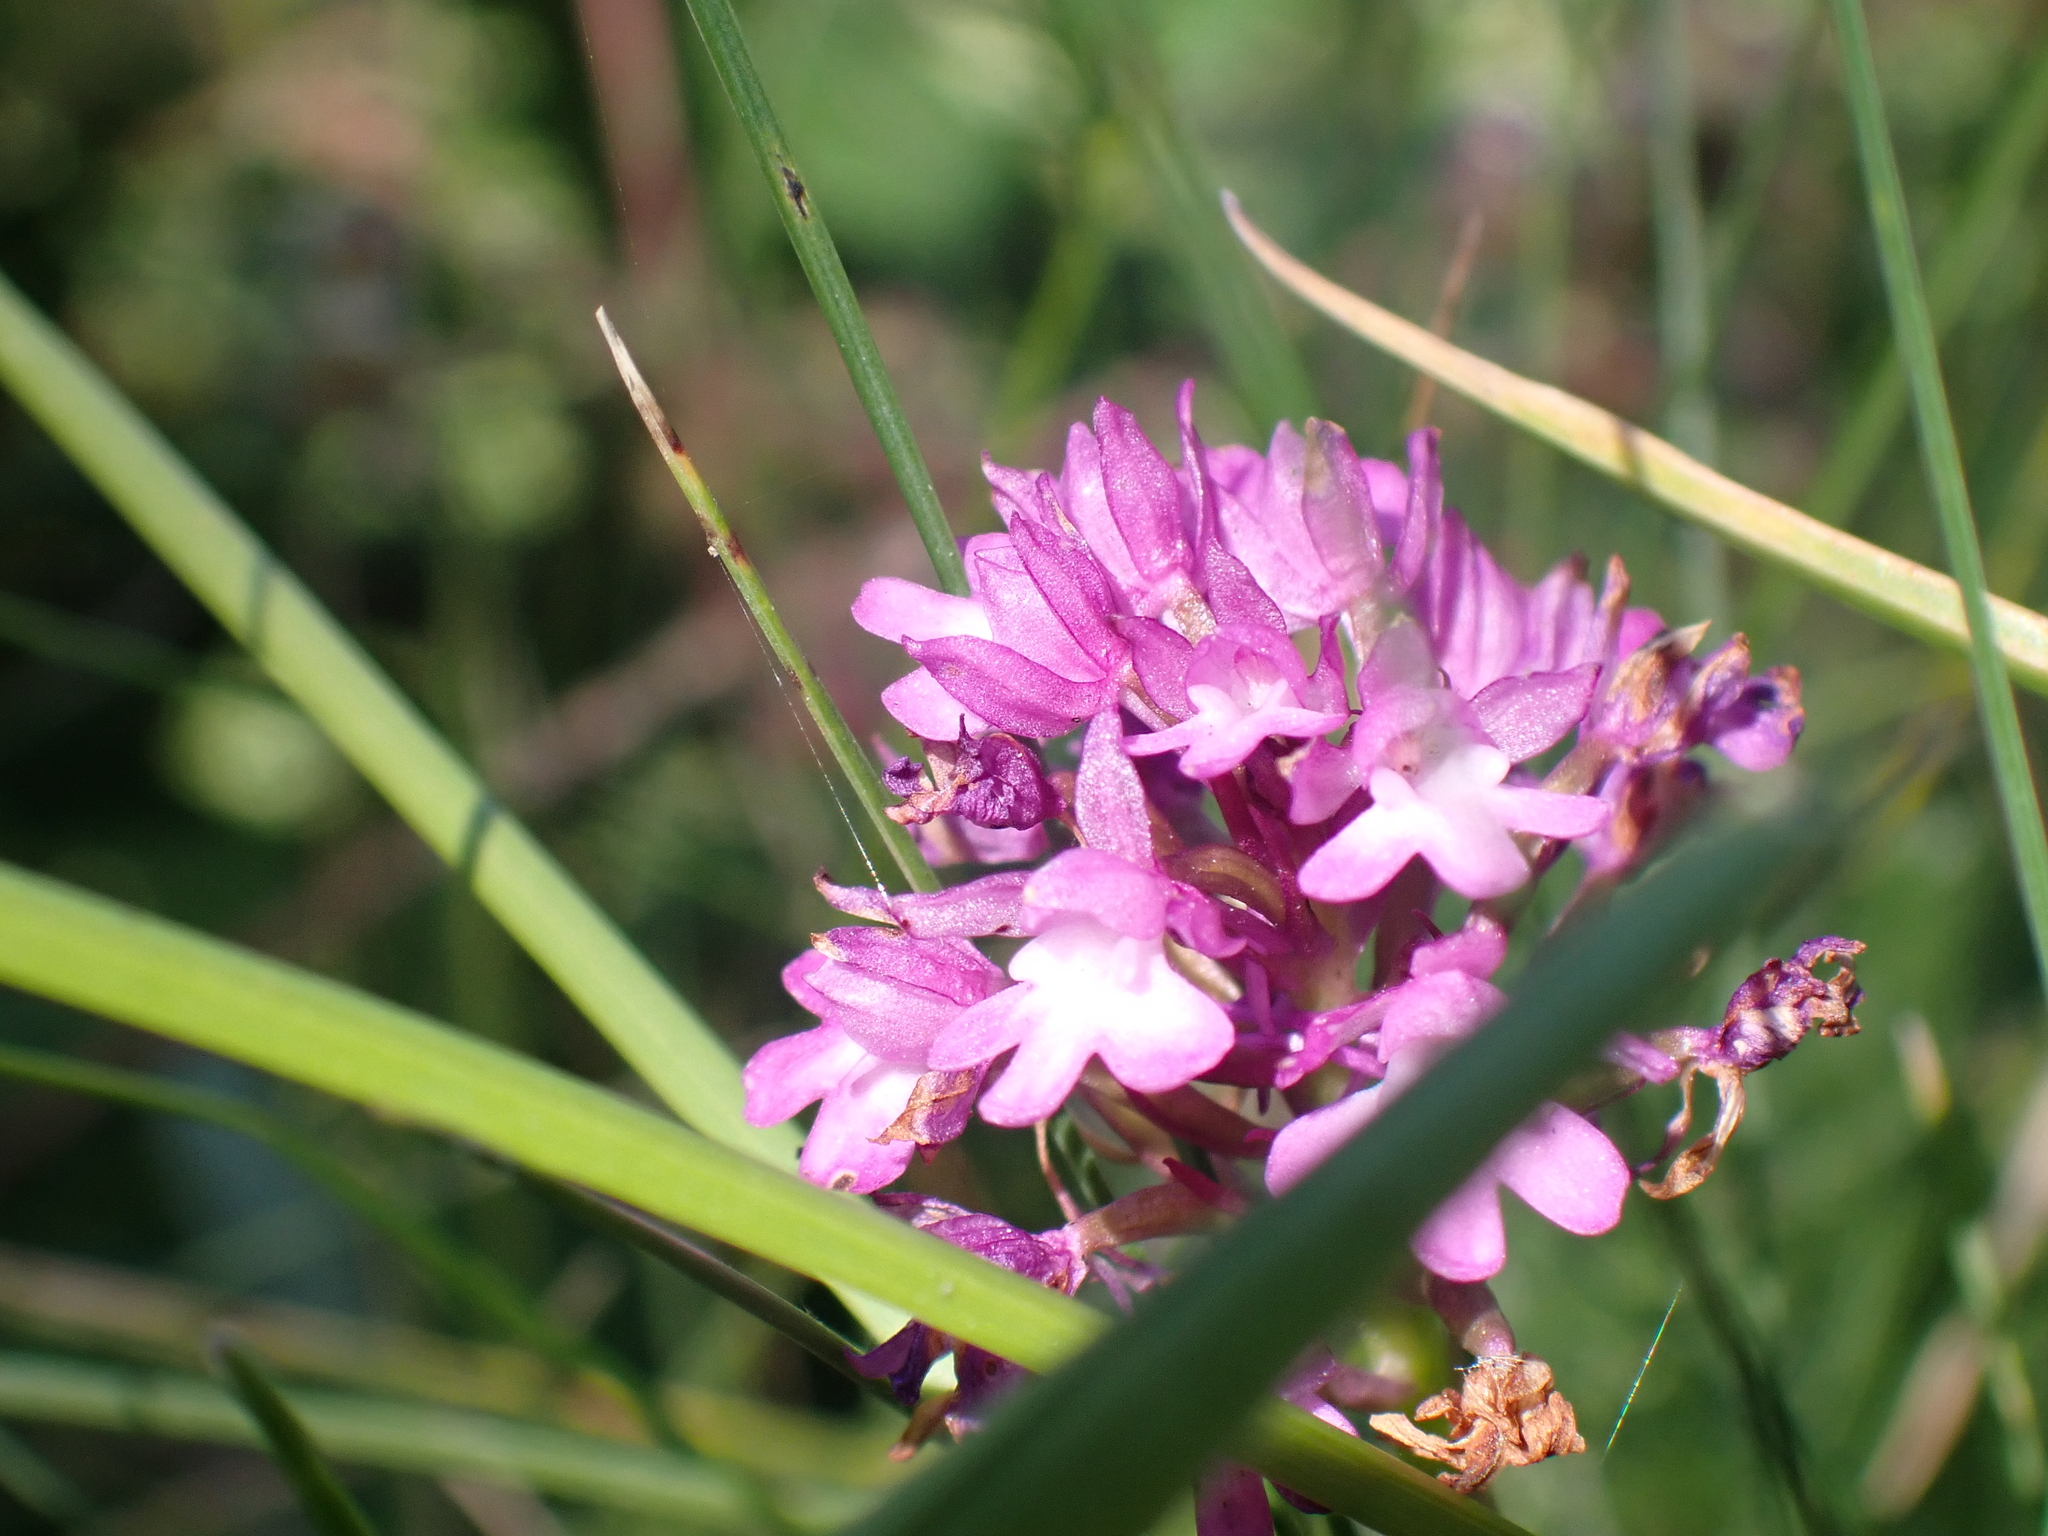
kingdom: Plantae
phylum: Tracheophyta
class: Liliopsida
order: Asparagales
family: Orchidaceae
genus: Anacamptis
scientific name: Anacamptis pyramidalis
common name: Pyramidal orchid
